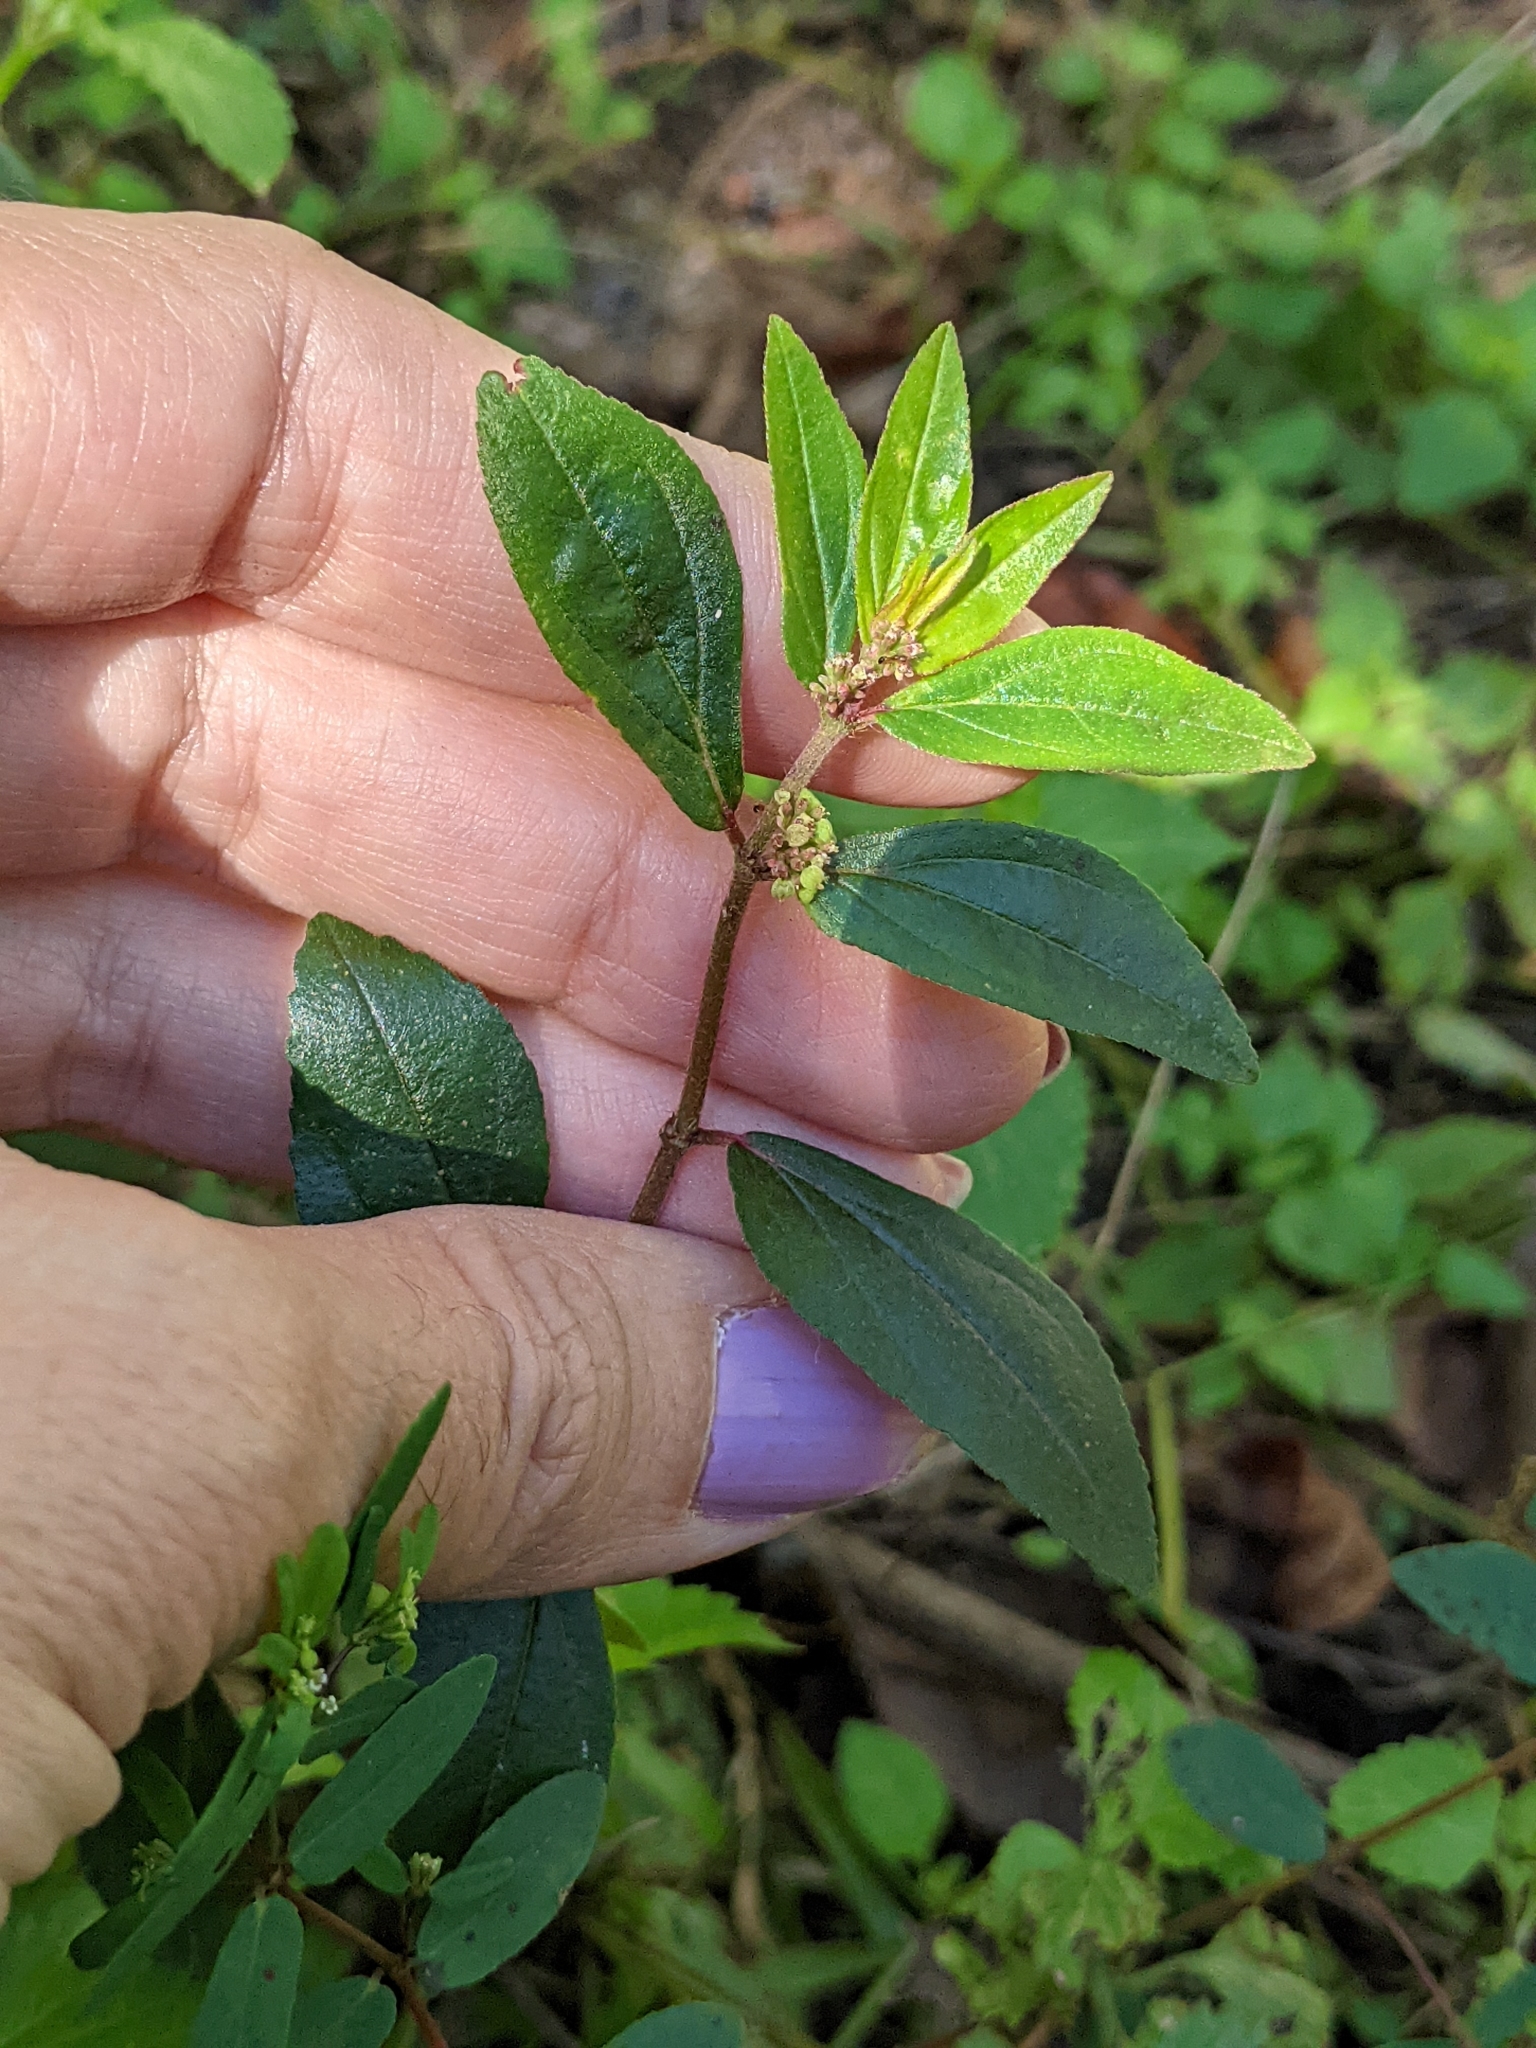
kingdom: Plantae
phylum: Tracheophyta
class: Magnoliopsida
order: Malpighiales
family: Euphorbiaceae
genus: Euphorbia
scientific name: Euphorbia hirta
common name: Pillpod sandmat
